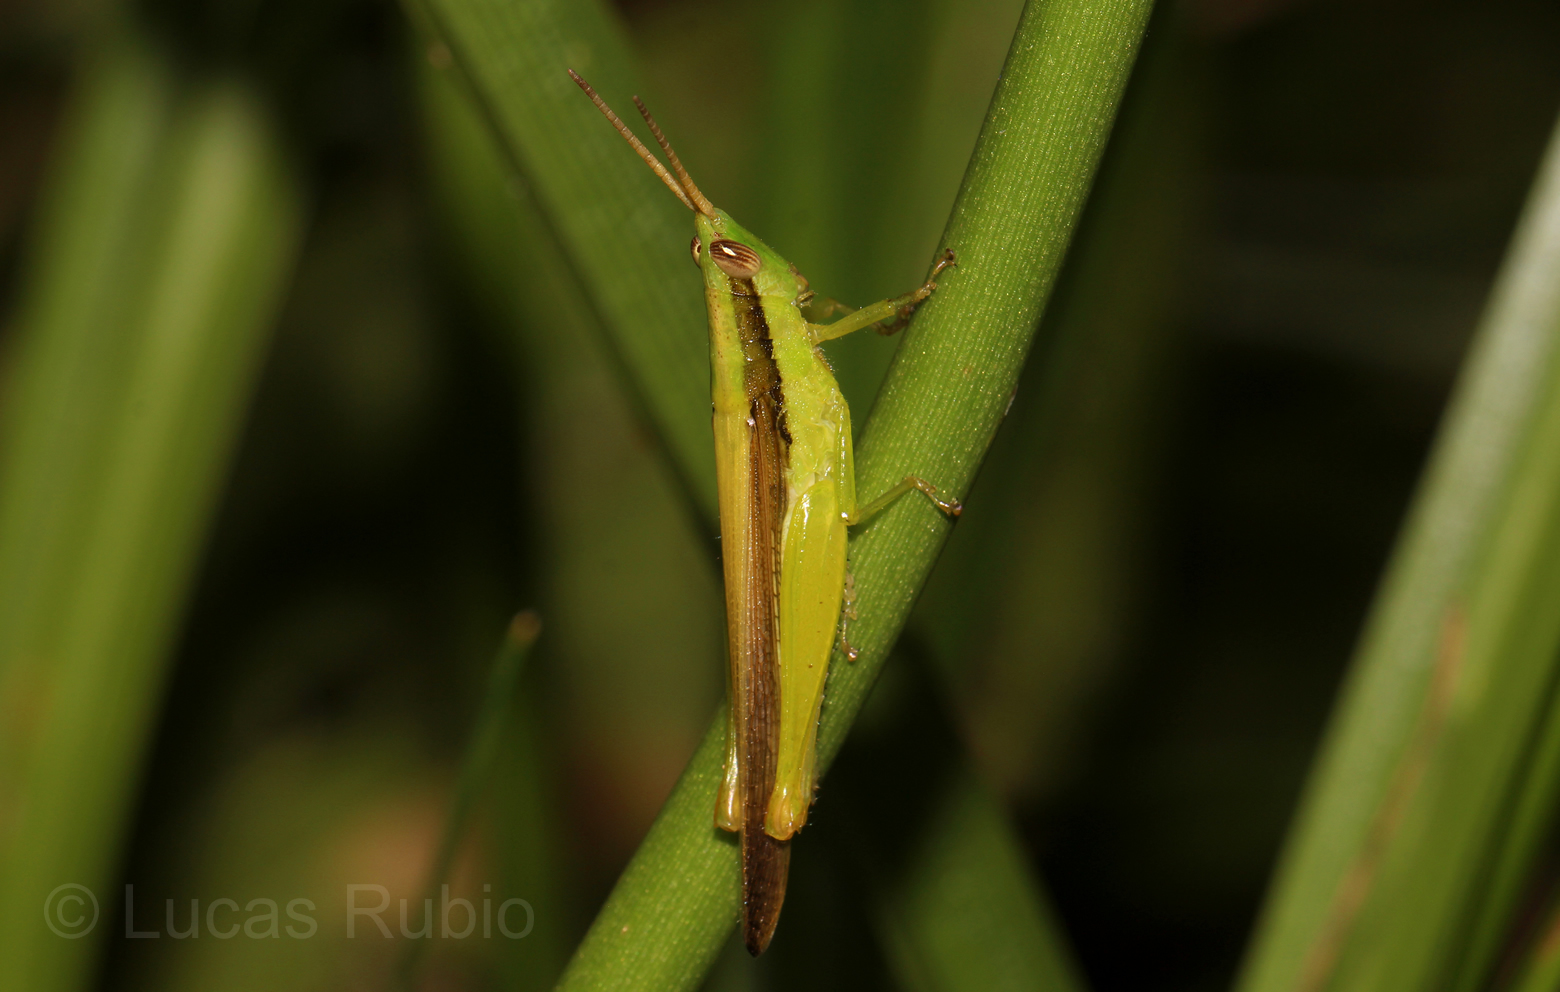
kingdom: Animalia
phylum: Arthropoda
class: Insecta
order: Orthoptera
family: Acrididae
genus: Stenopola
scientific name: Stenopola pallida
